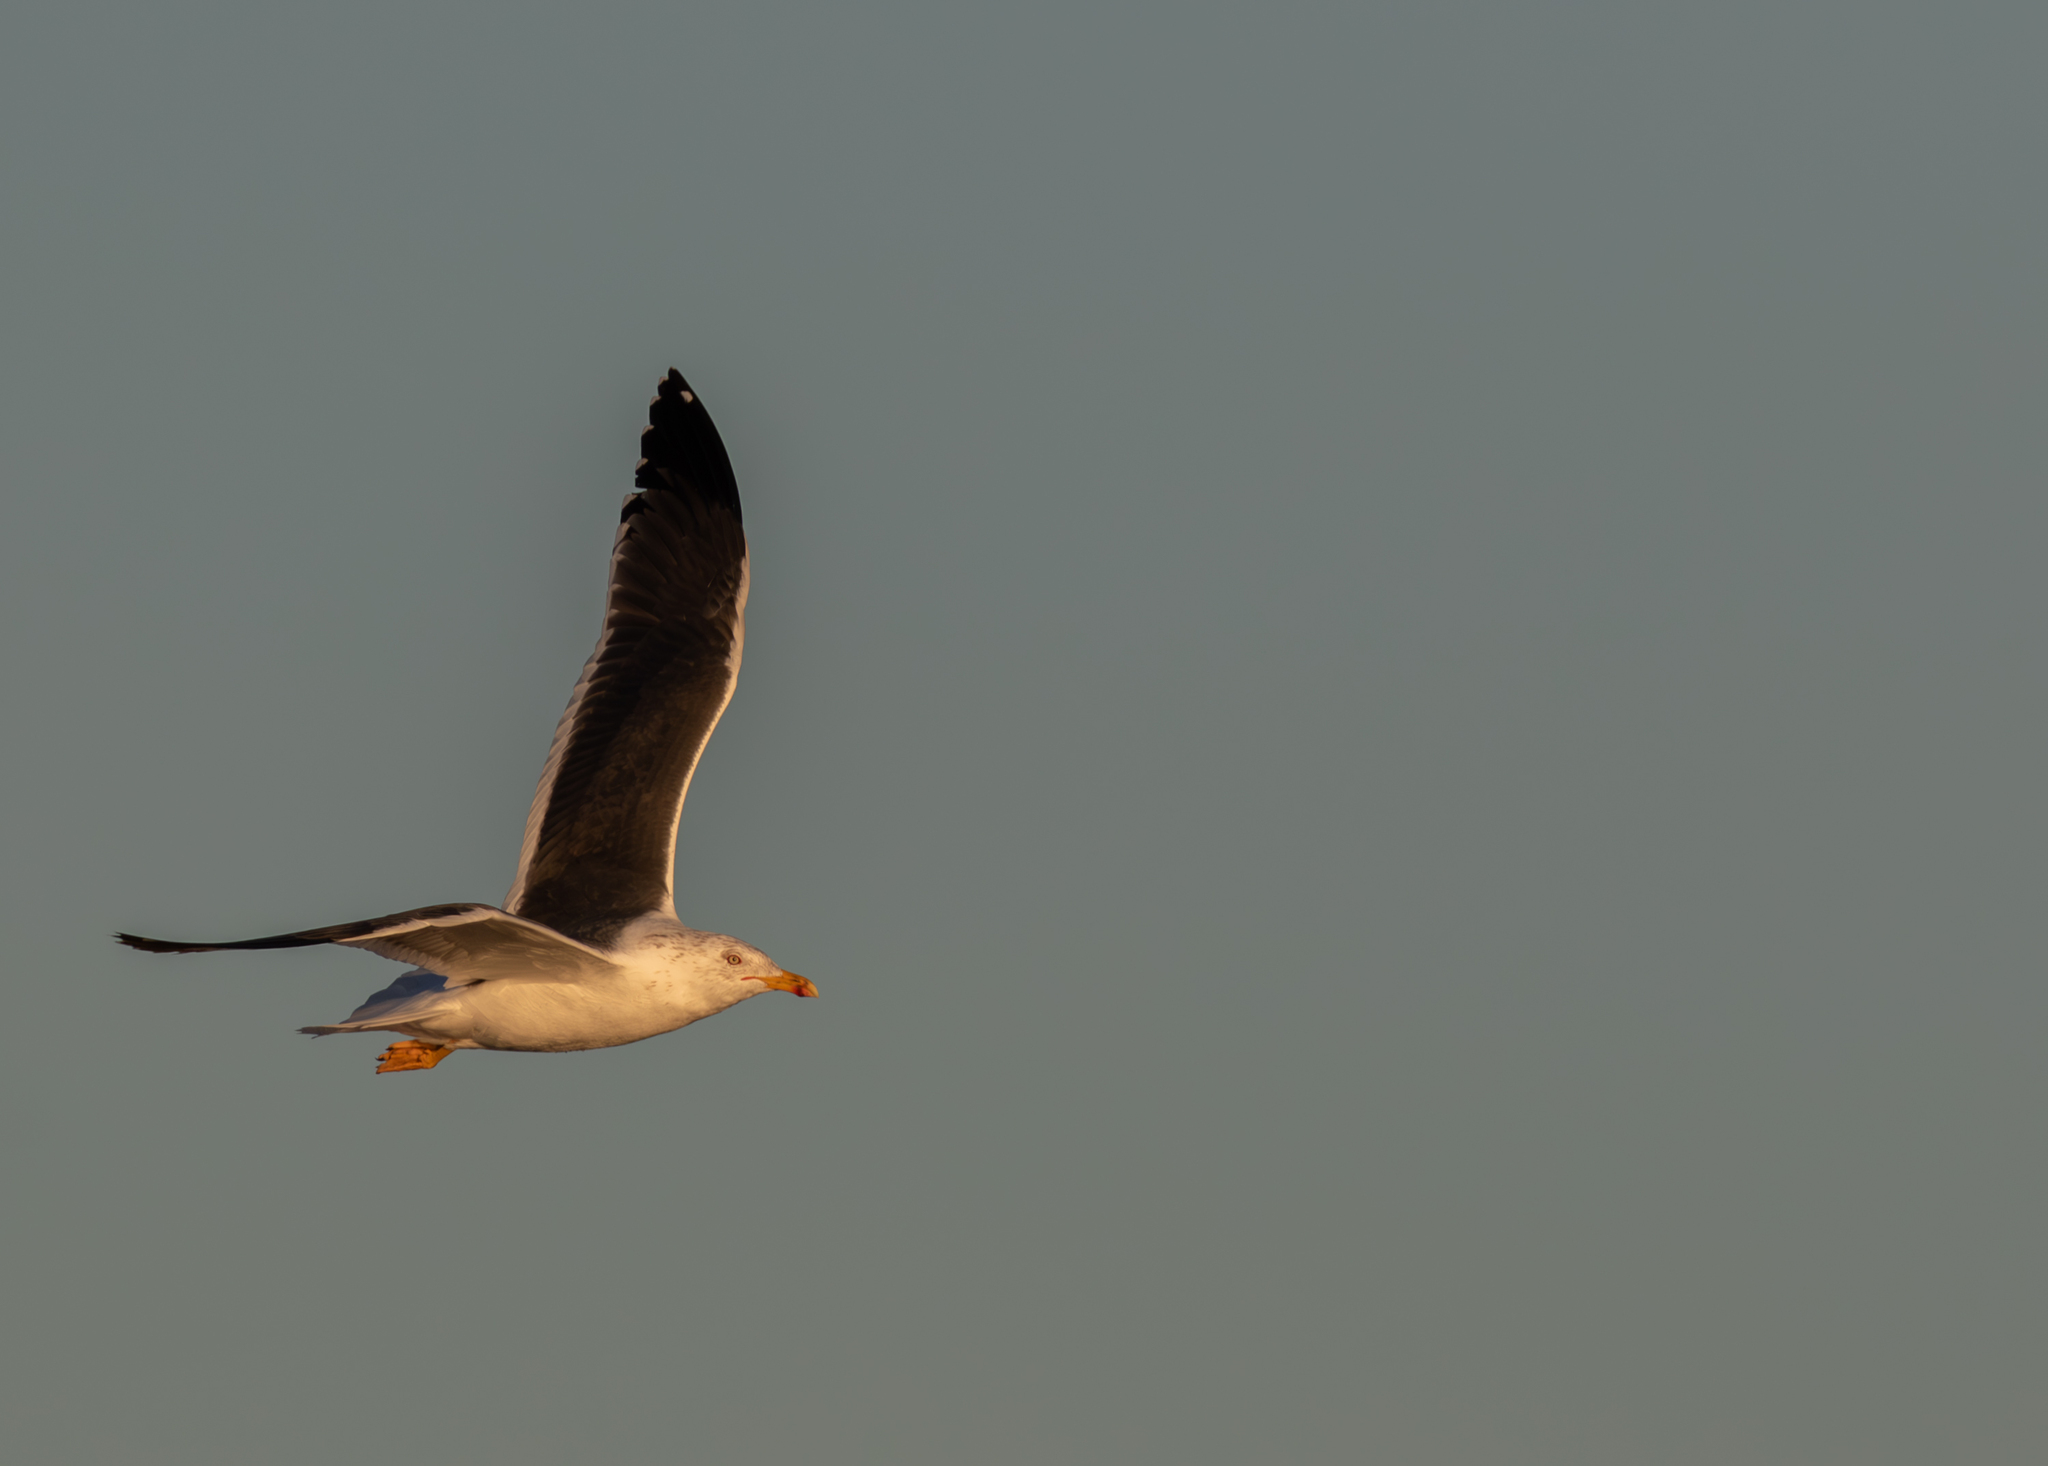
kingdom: Animalia
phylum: Chordata
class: Aves
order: Charadriiformes
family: Laridae
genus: Larus
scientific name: Larus fuscus
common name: Lesser black-backed gull
